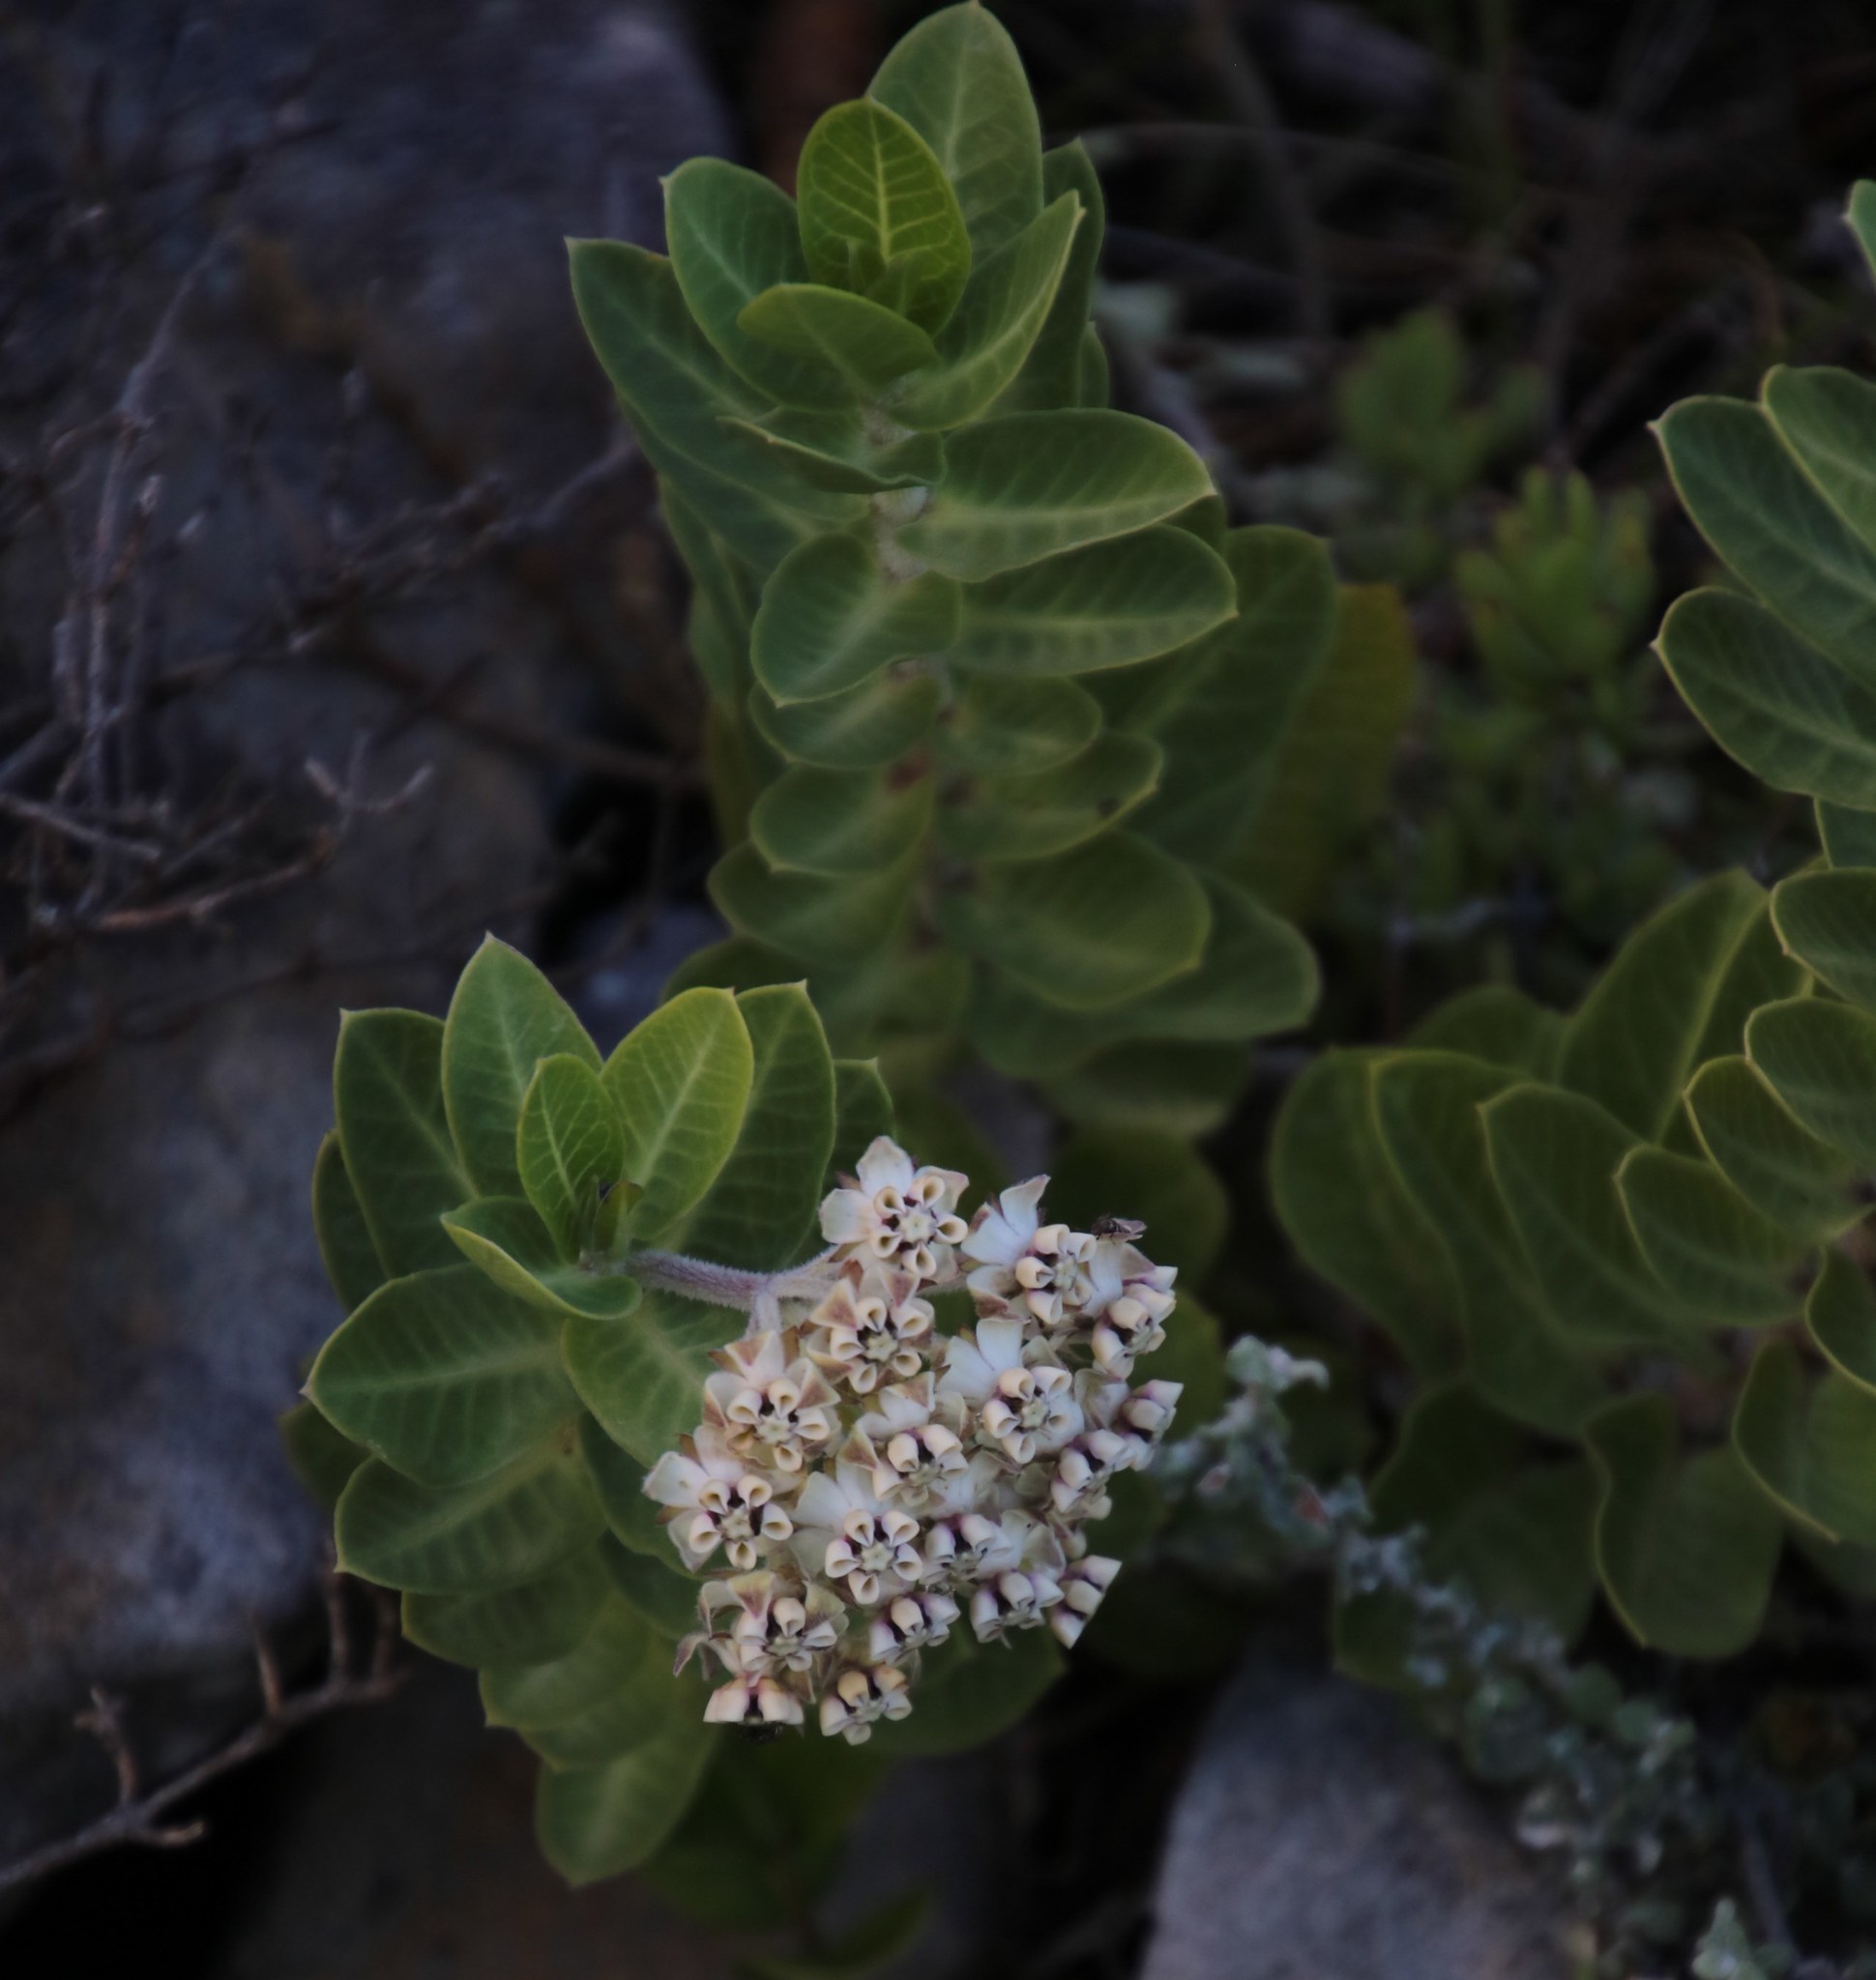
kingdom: Plantae
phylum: Tracheophyta
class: Magnoliopsida
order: Gentianales
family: Apocynaceae
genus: Gomphocarpus
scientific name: Gomphocarpus cancellatus
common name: Wild cotton
